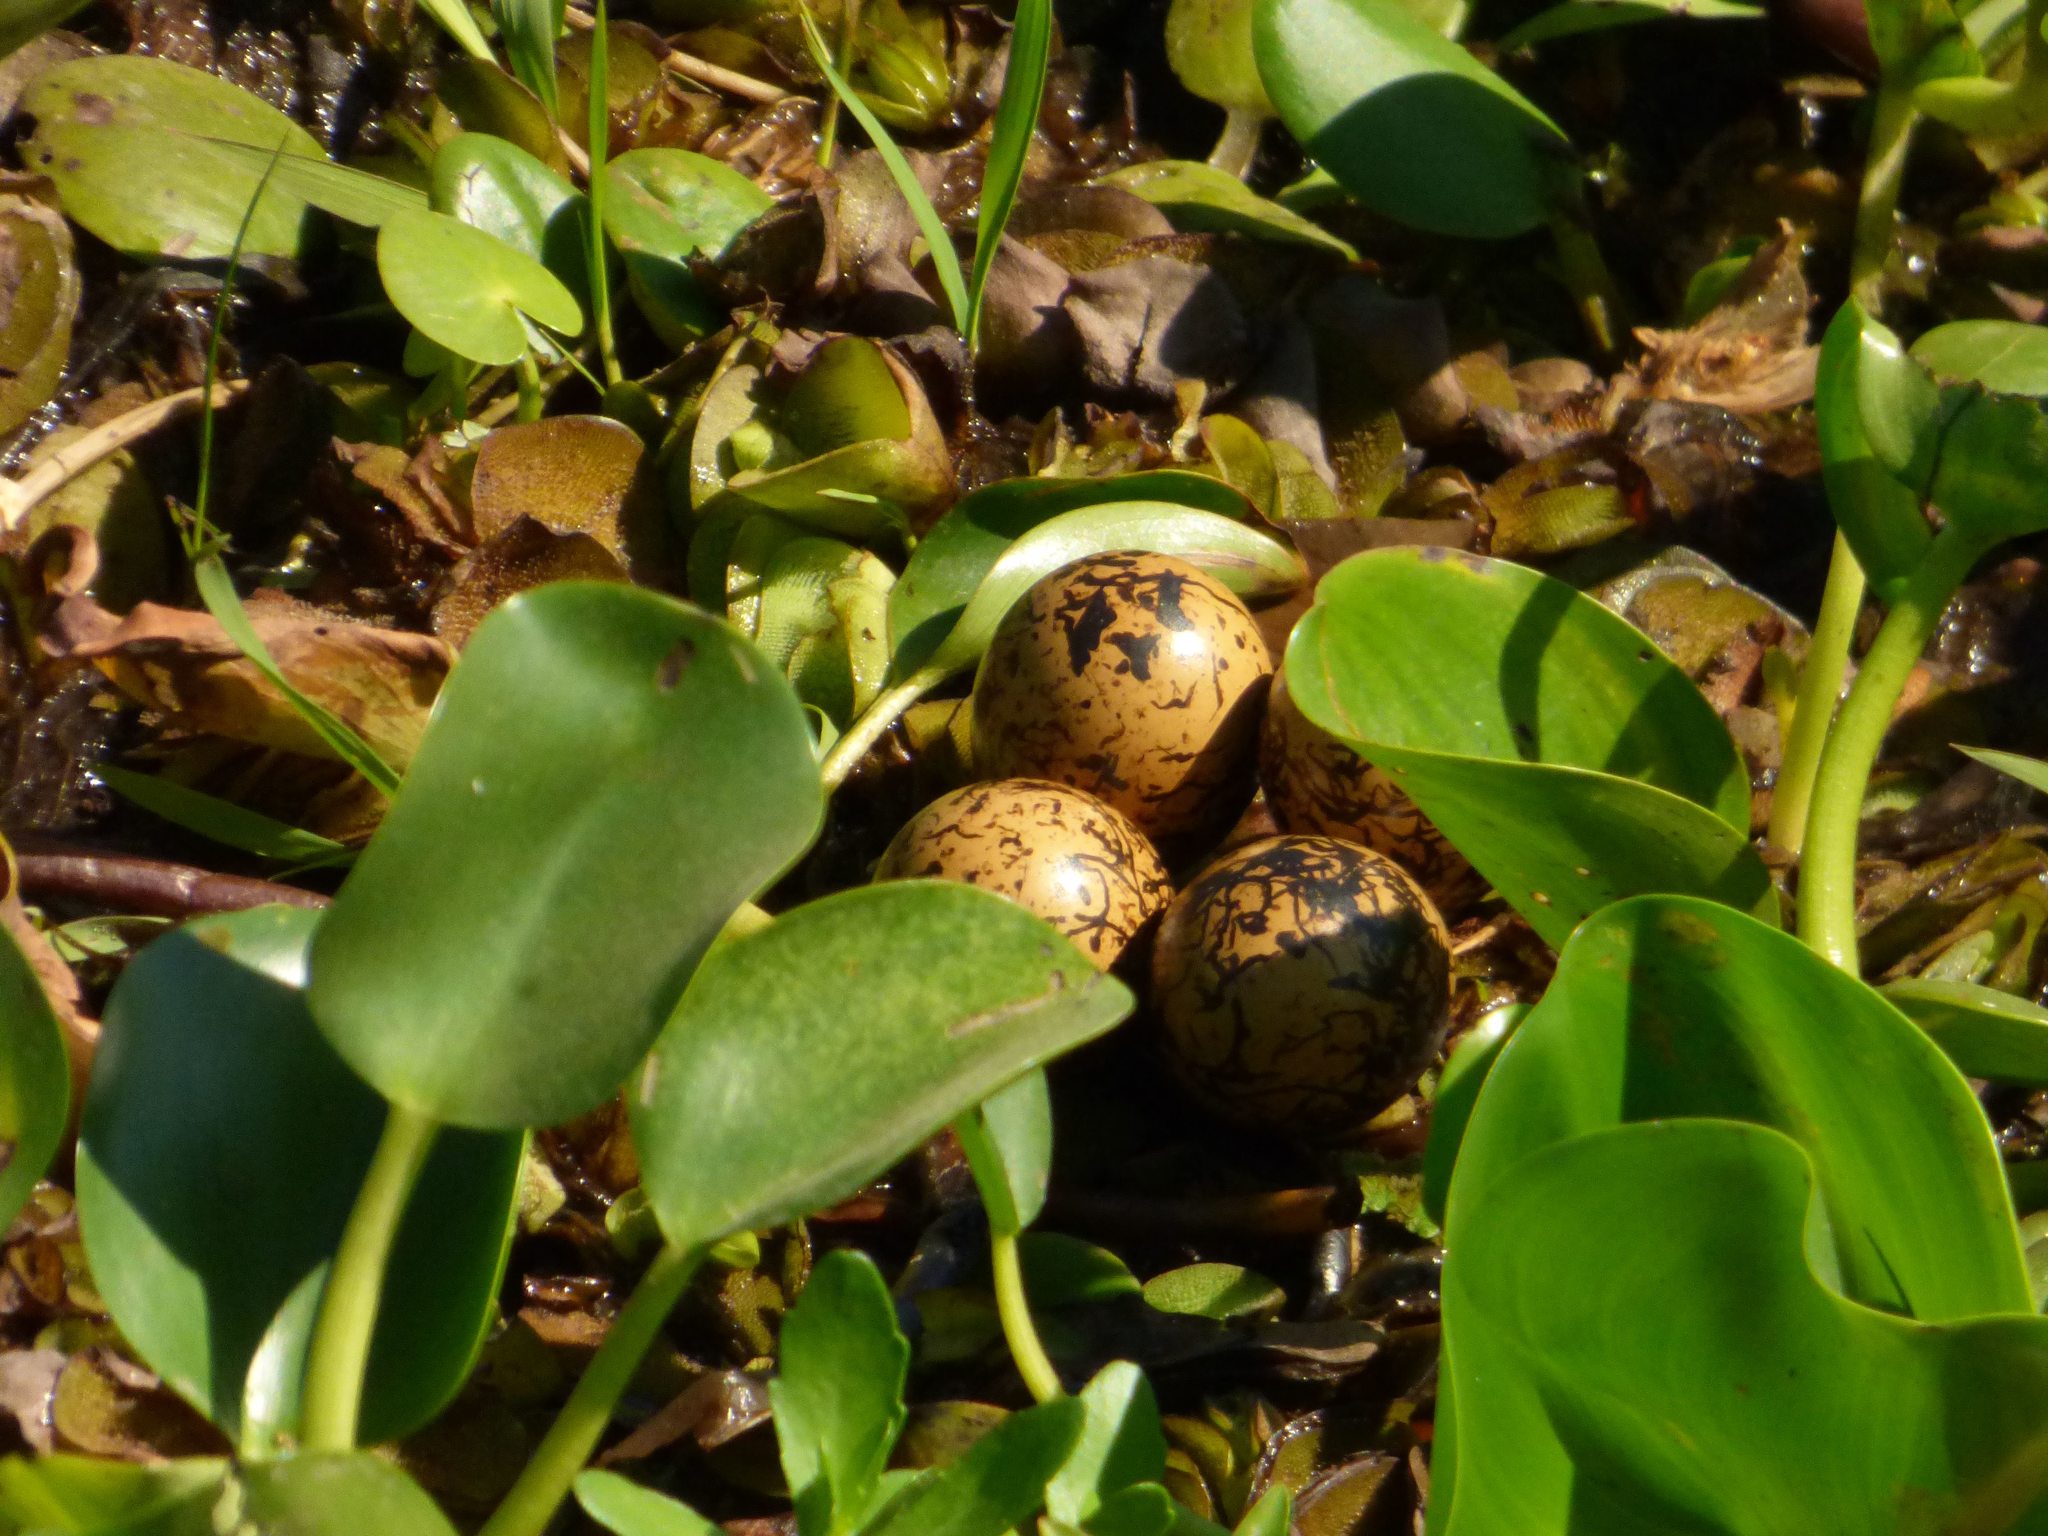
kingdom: Animalia
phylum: Chordata
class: Aves
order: Charadriiformes
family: Jacanidae
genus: Jacana
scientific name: Jacana jacana
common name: Wattled jacana
